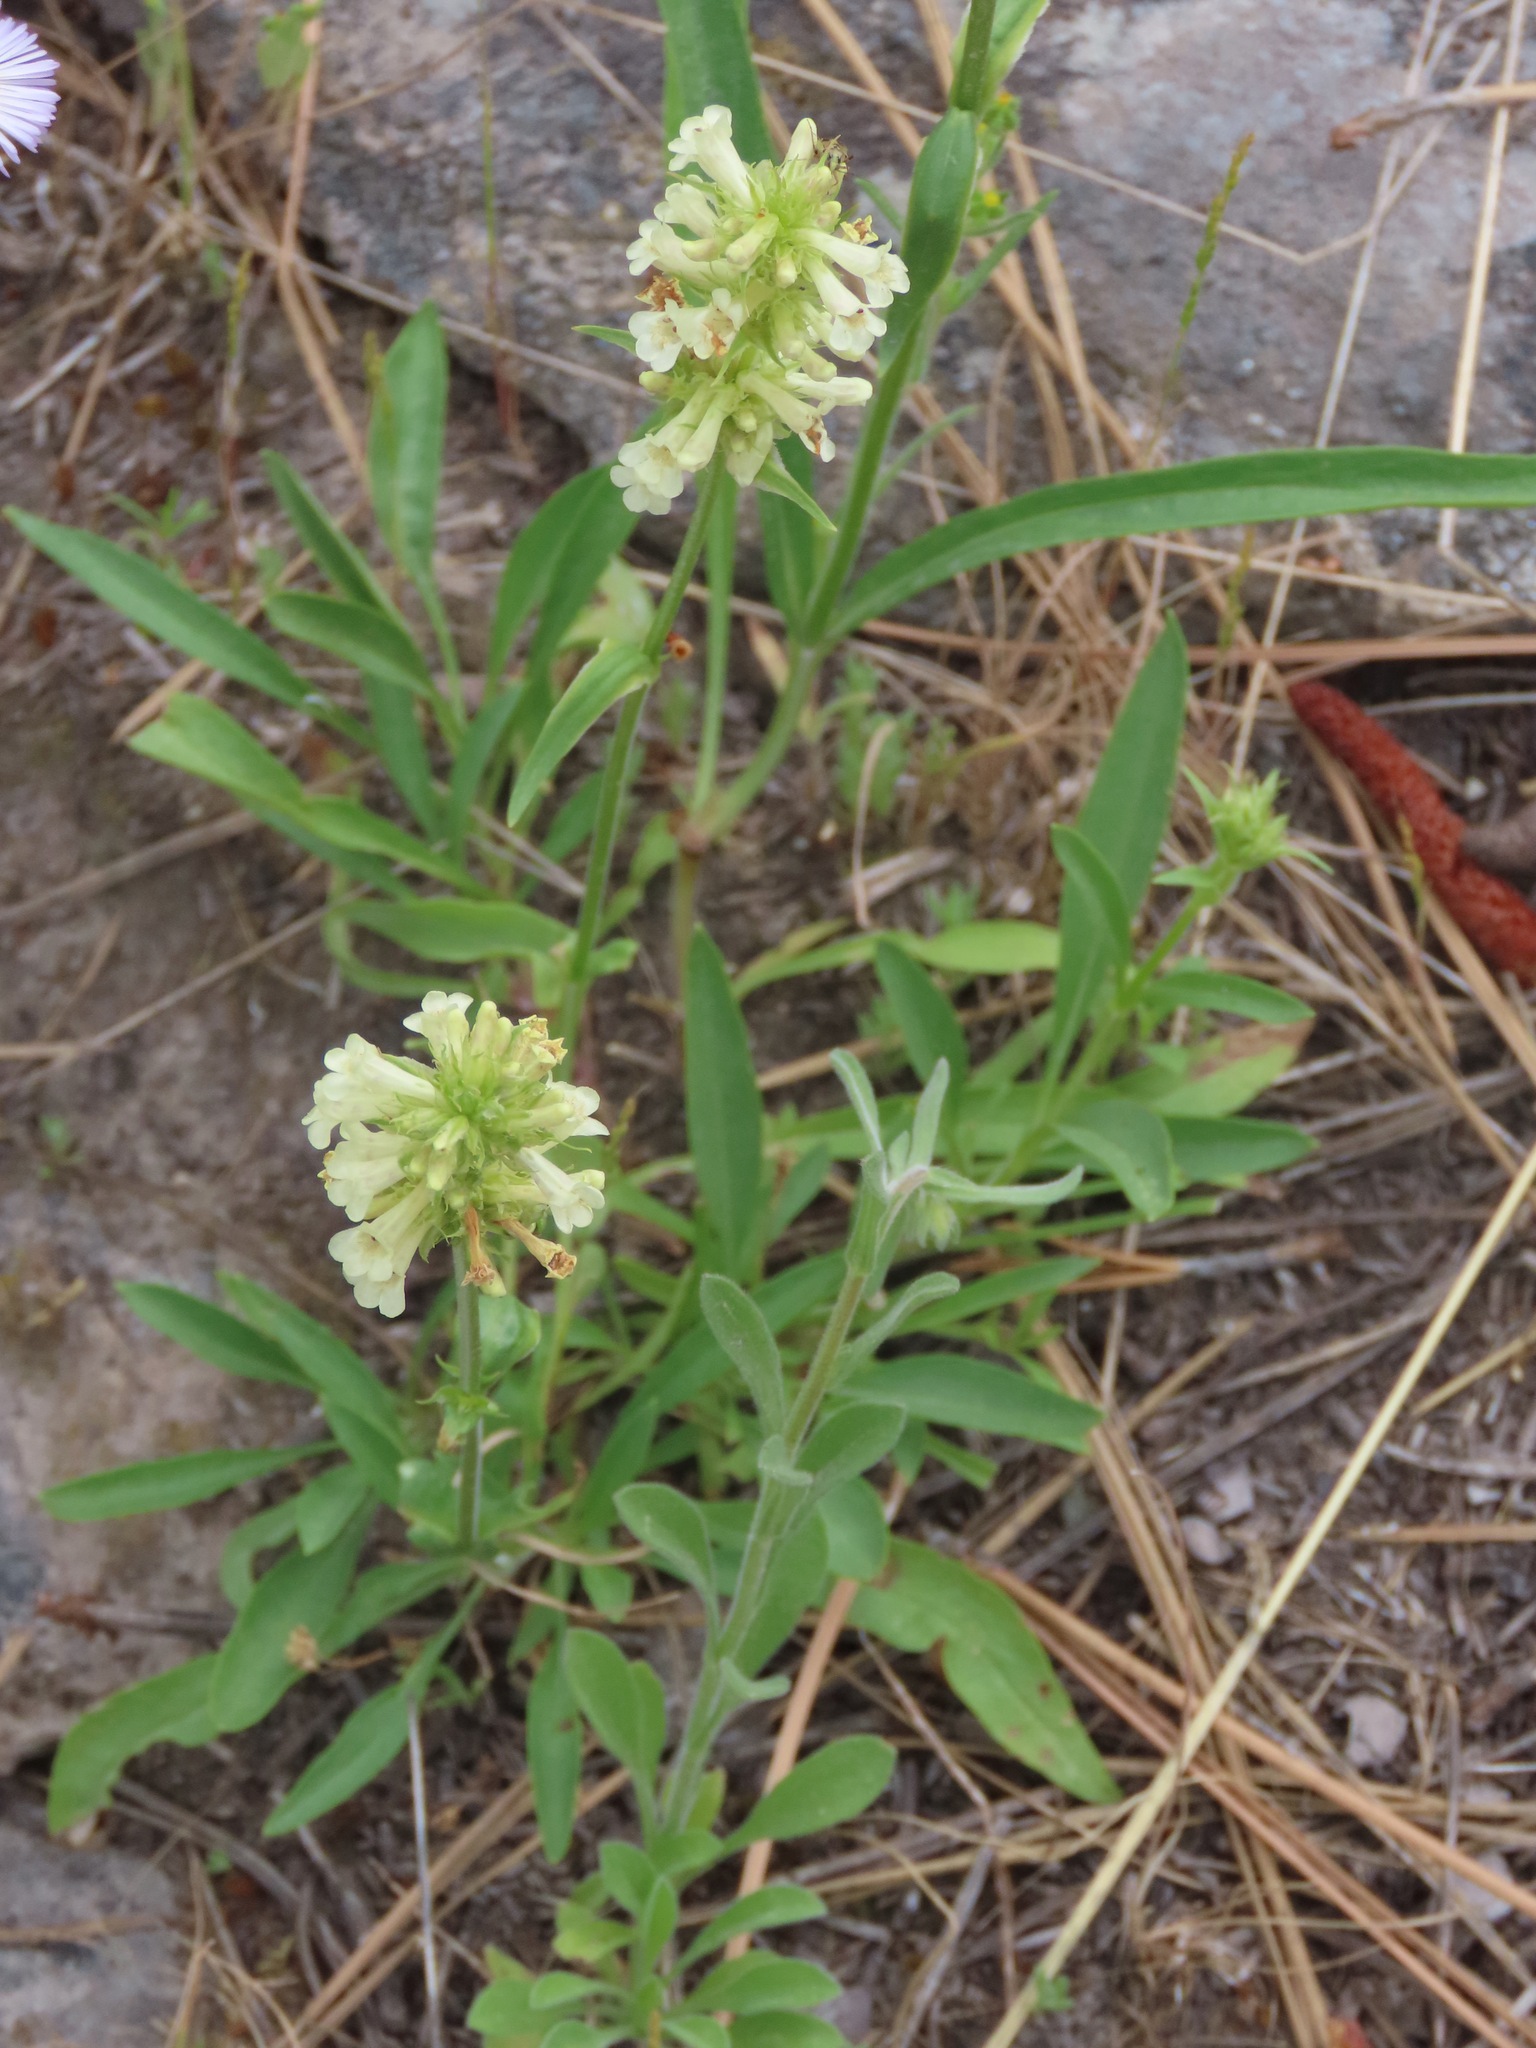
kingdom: Plantae
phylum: Tracheophyta
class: Magnoliopsida
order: Lamiales
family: Plantaginaceae
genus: Penstemon
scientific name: Penstemon confertus
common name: Lesser yellow beardtongue
